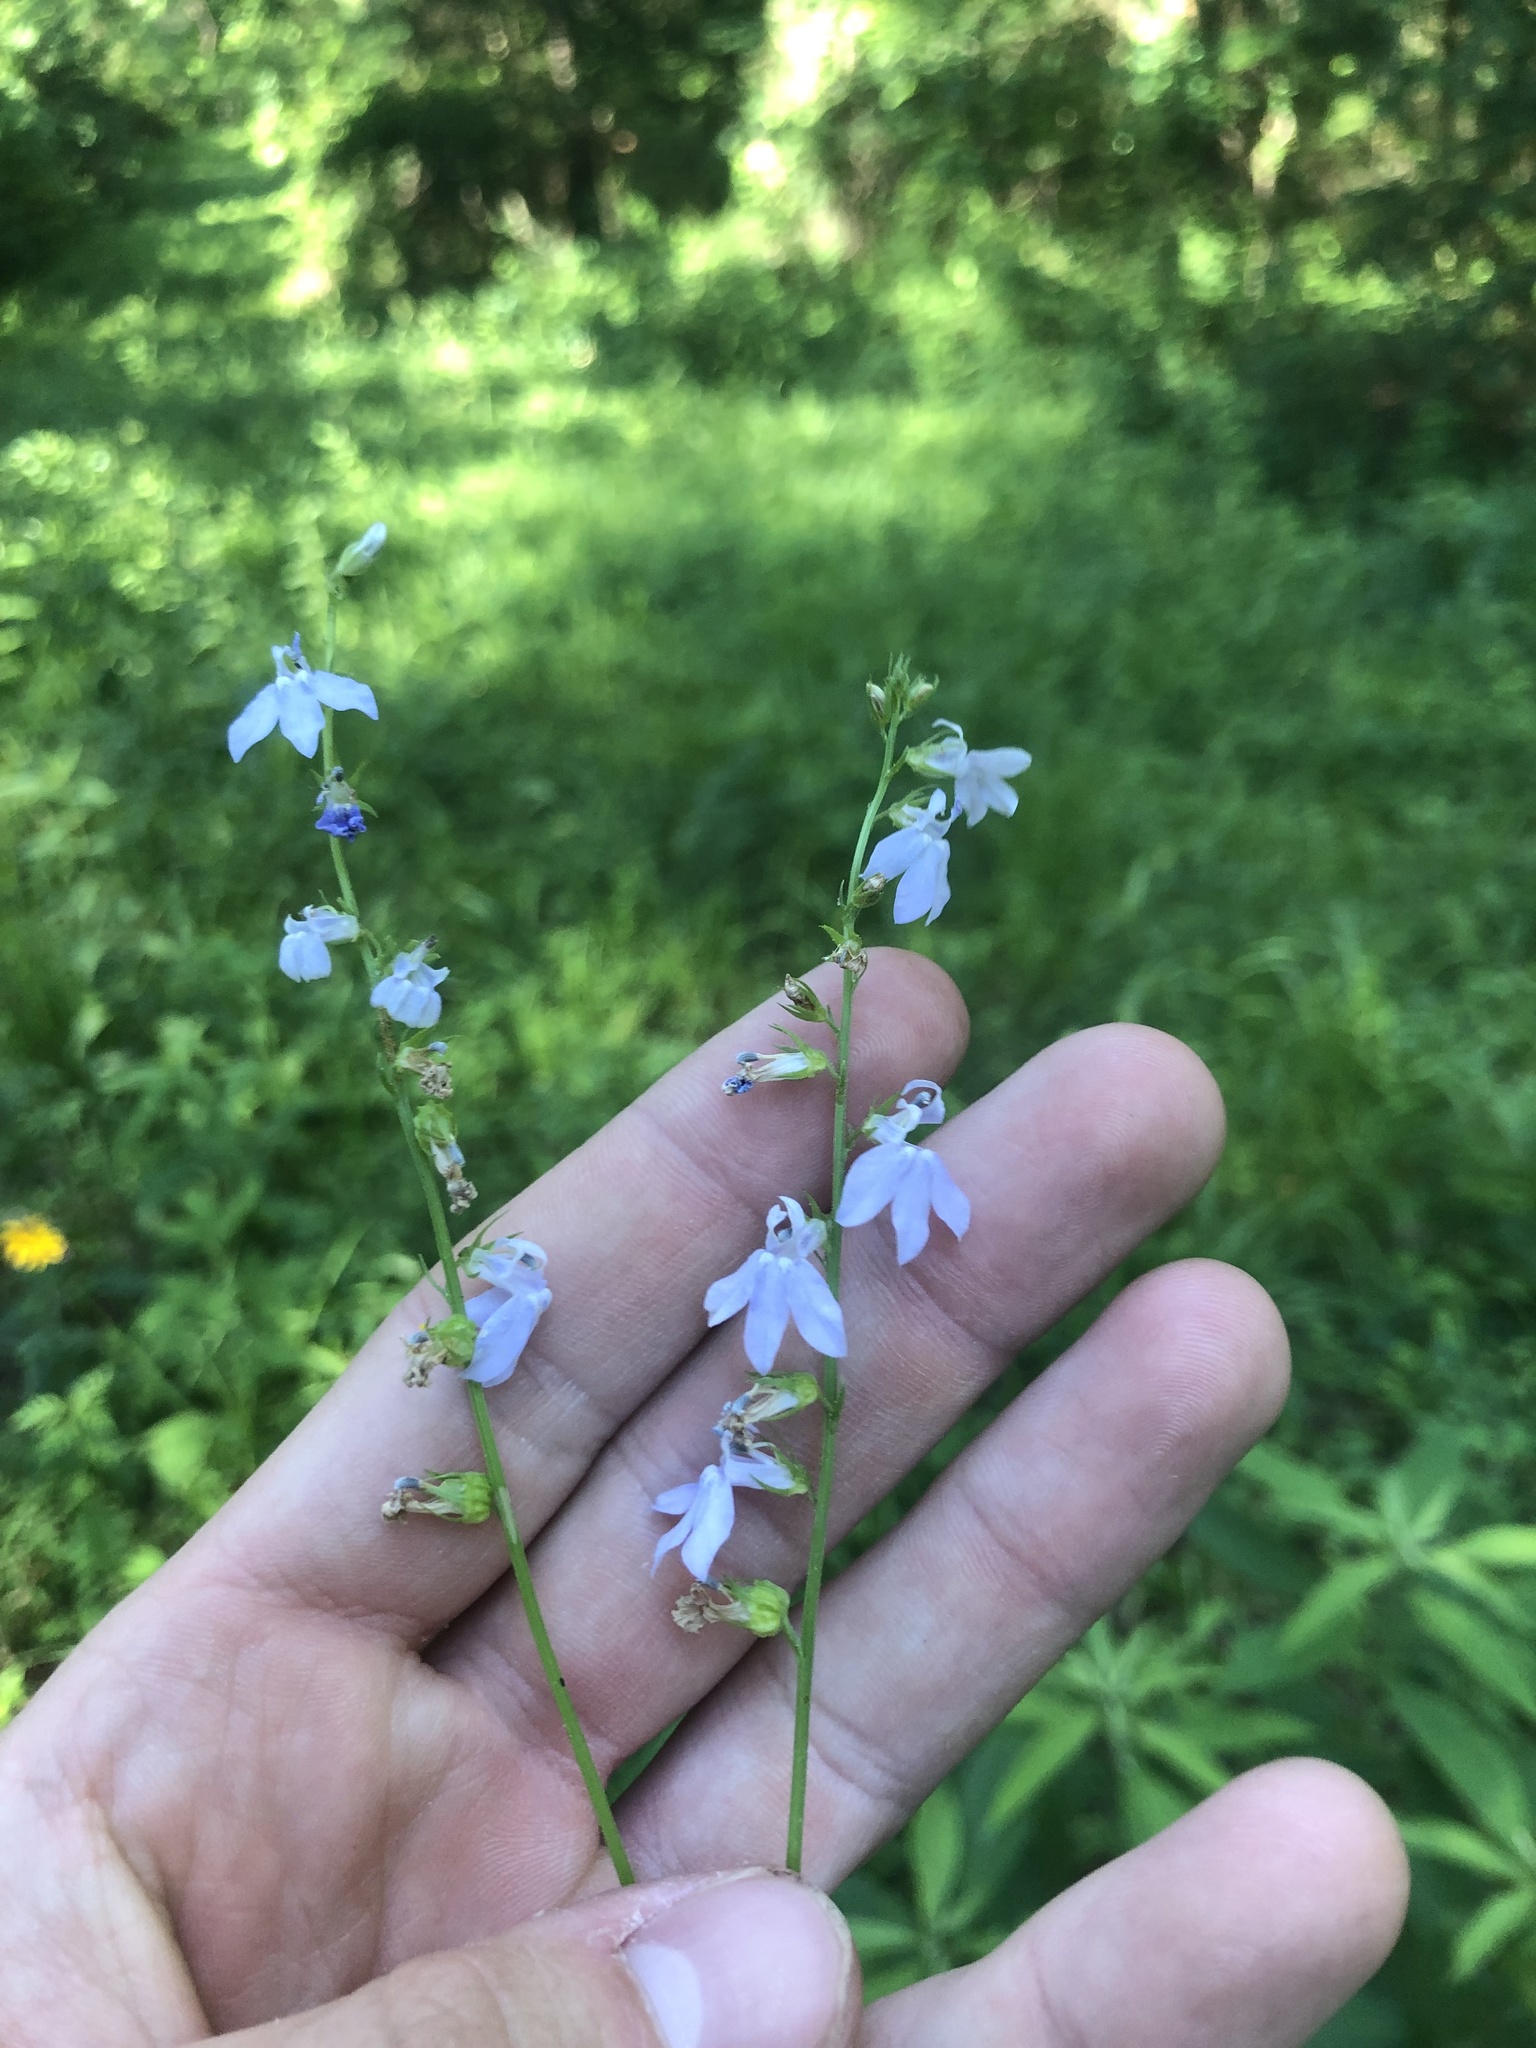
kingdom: Plantae
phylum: Tracheophyta
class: Magnoliopsida
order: Asterales
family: Campanulaceae
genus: Lobelia
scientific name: Lobelia appendiculata
